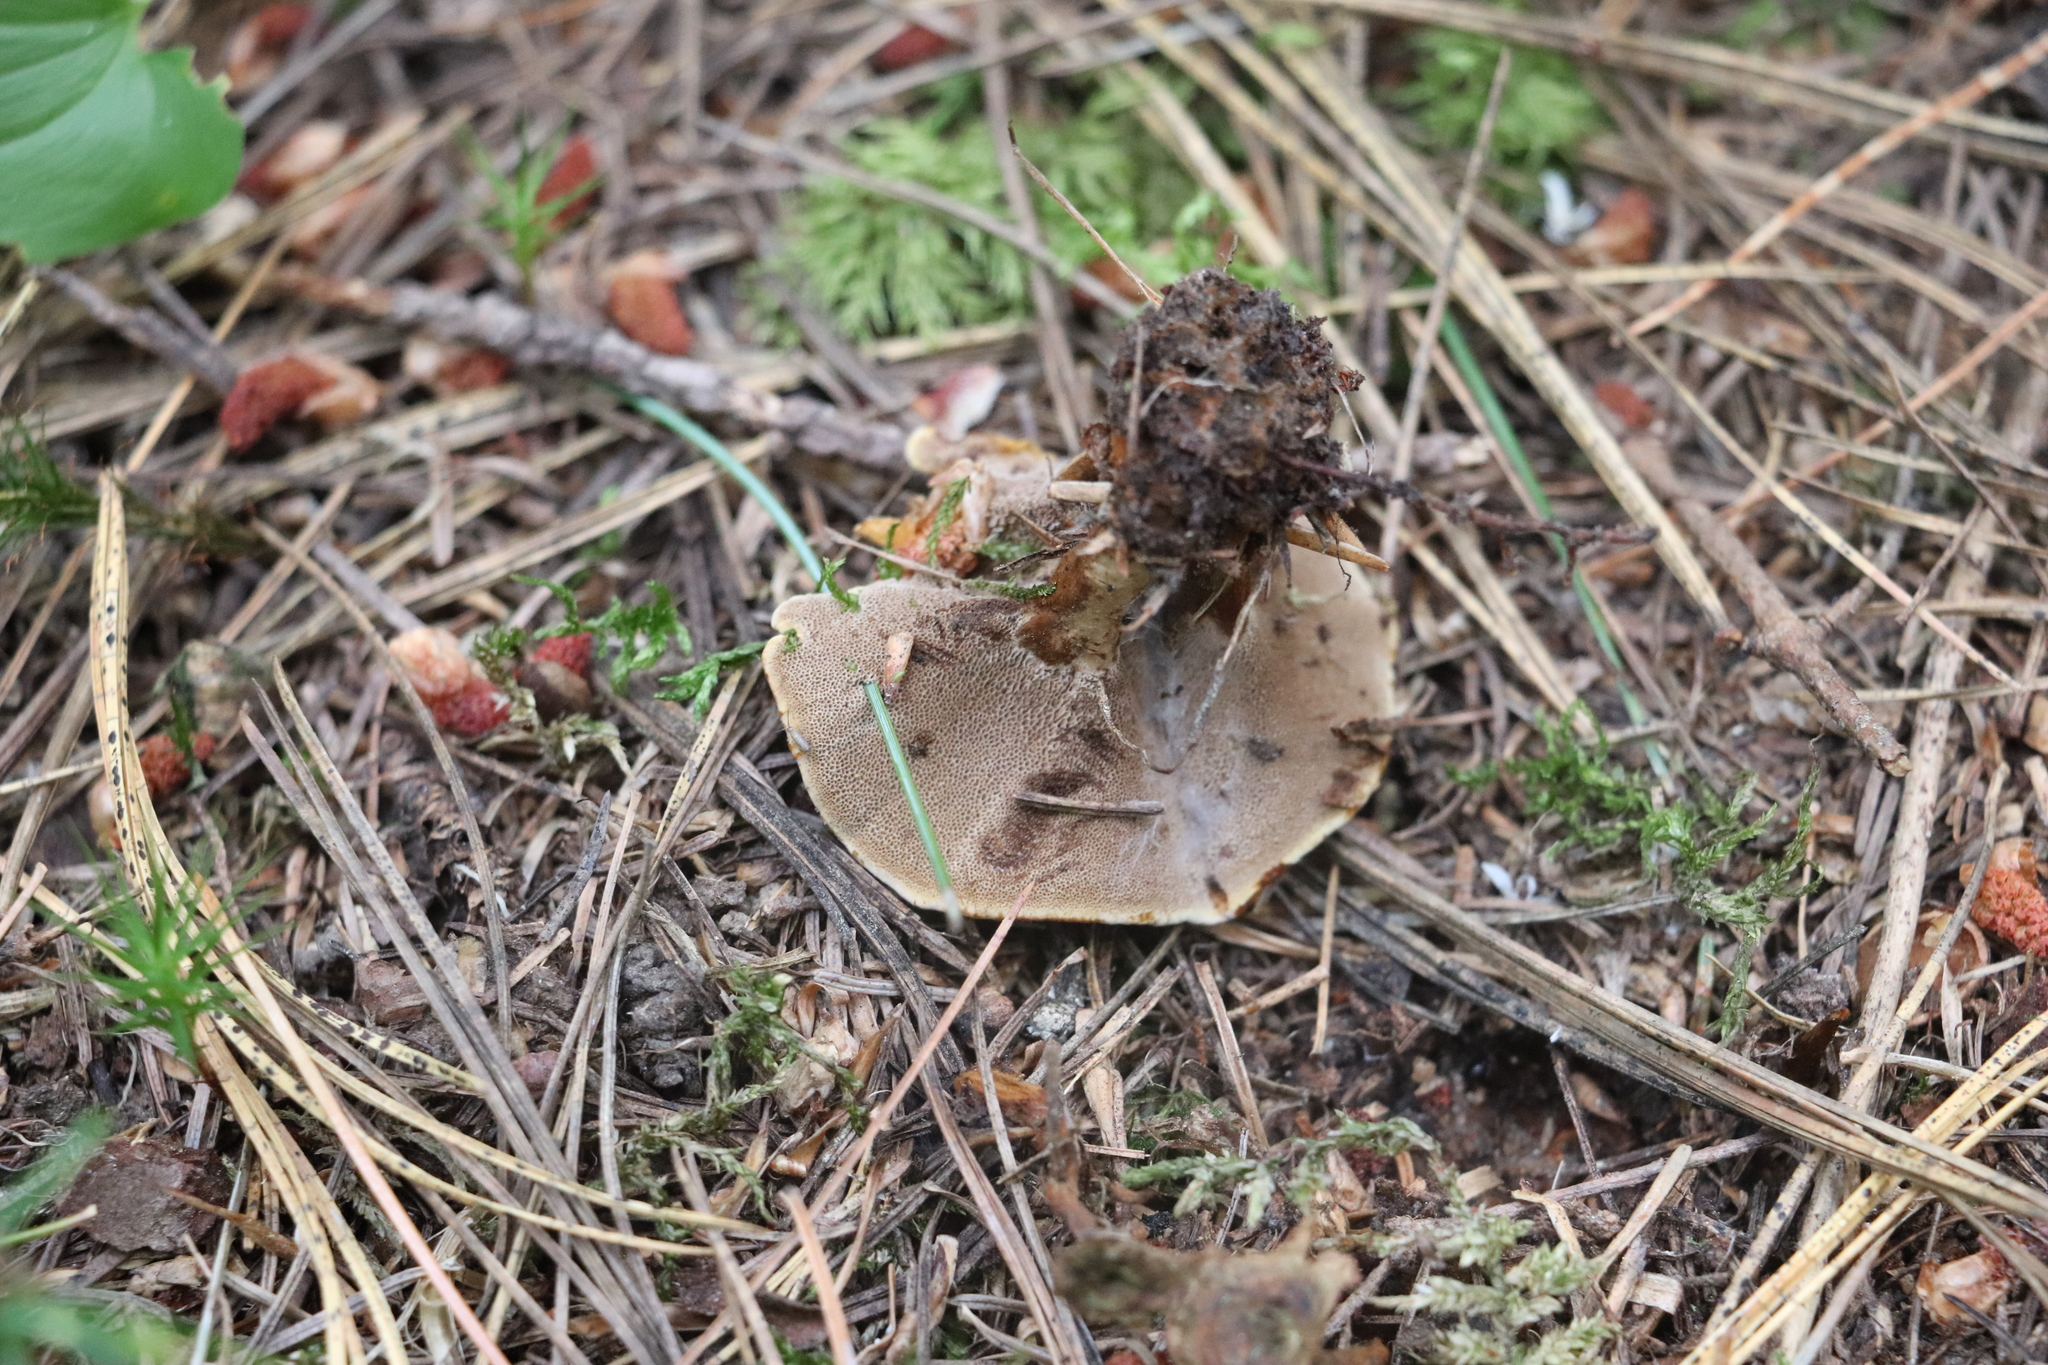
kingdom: Fungi
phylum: Basidiomycota
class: Agaricomycetes
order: Hymenochaetales
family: Hymenochaetaceae
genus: Coltricia
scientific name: Coltricia perennis
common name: Tiger's eye
